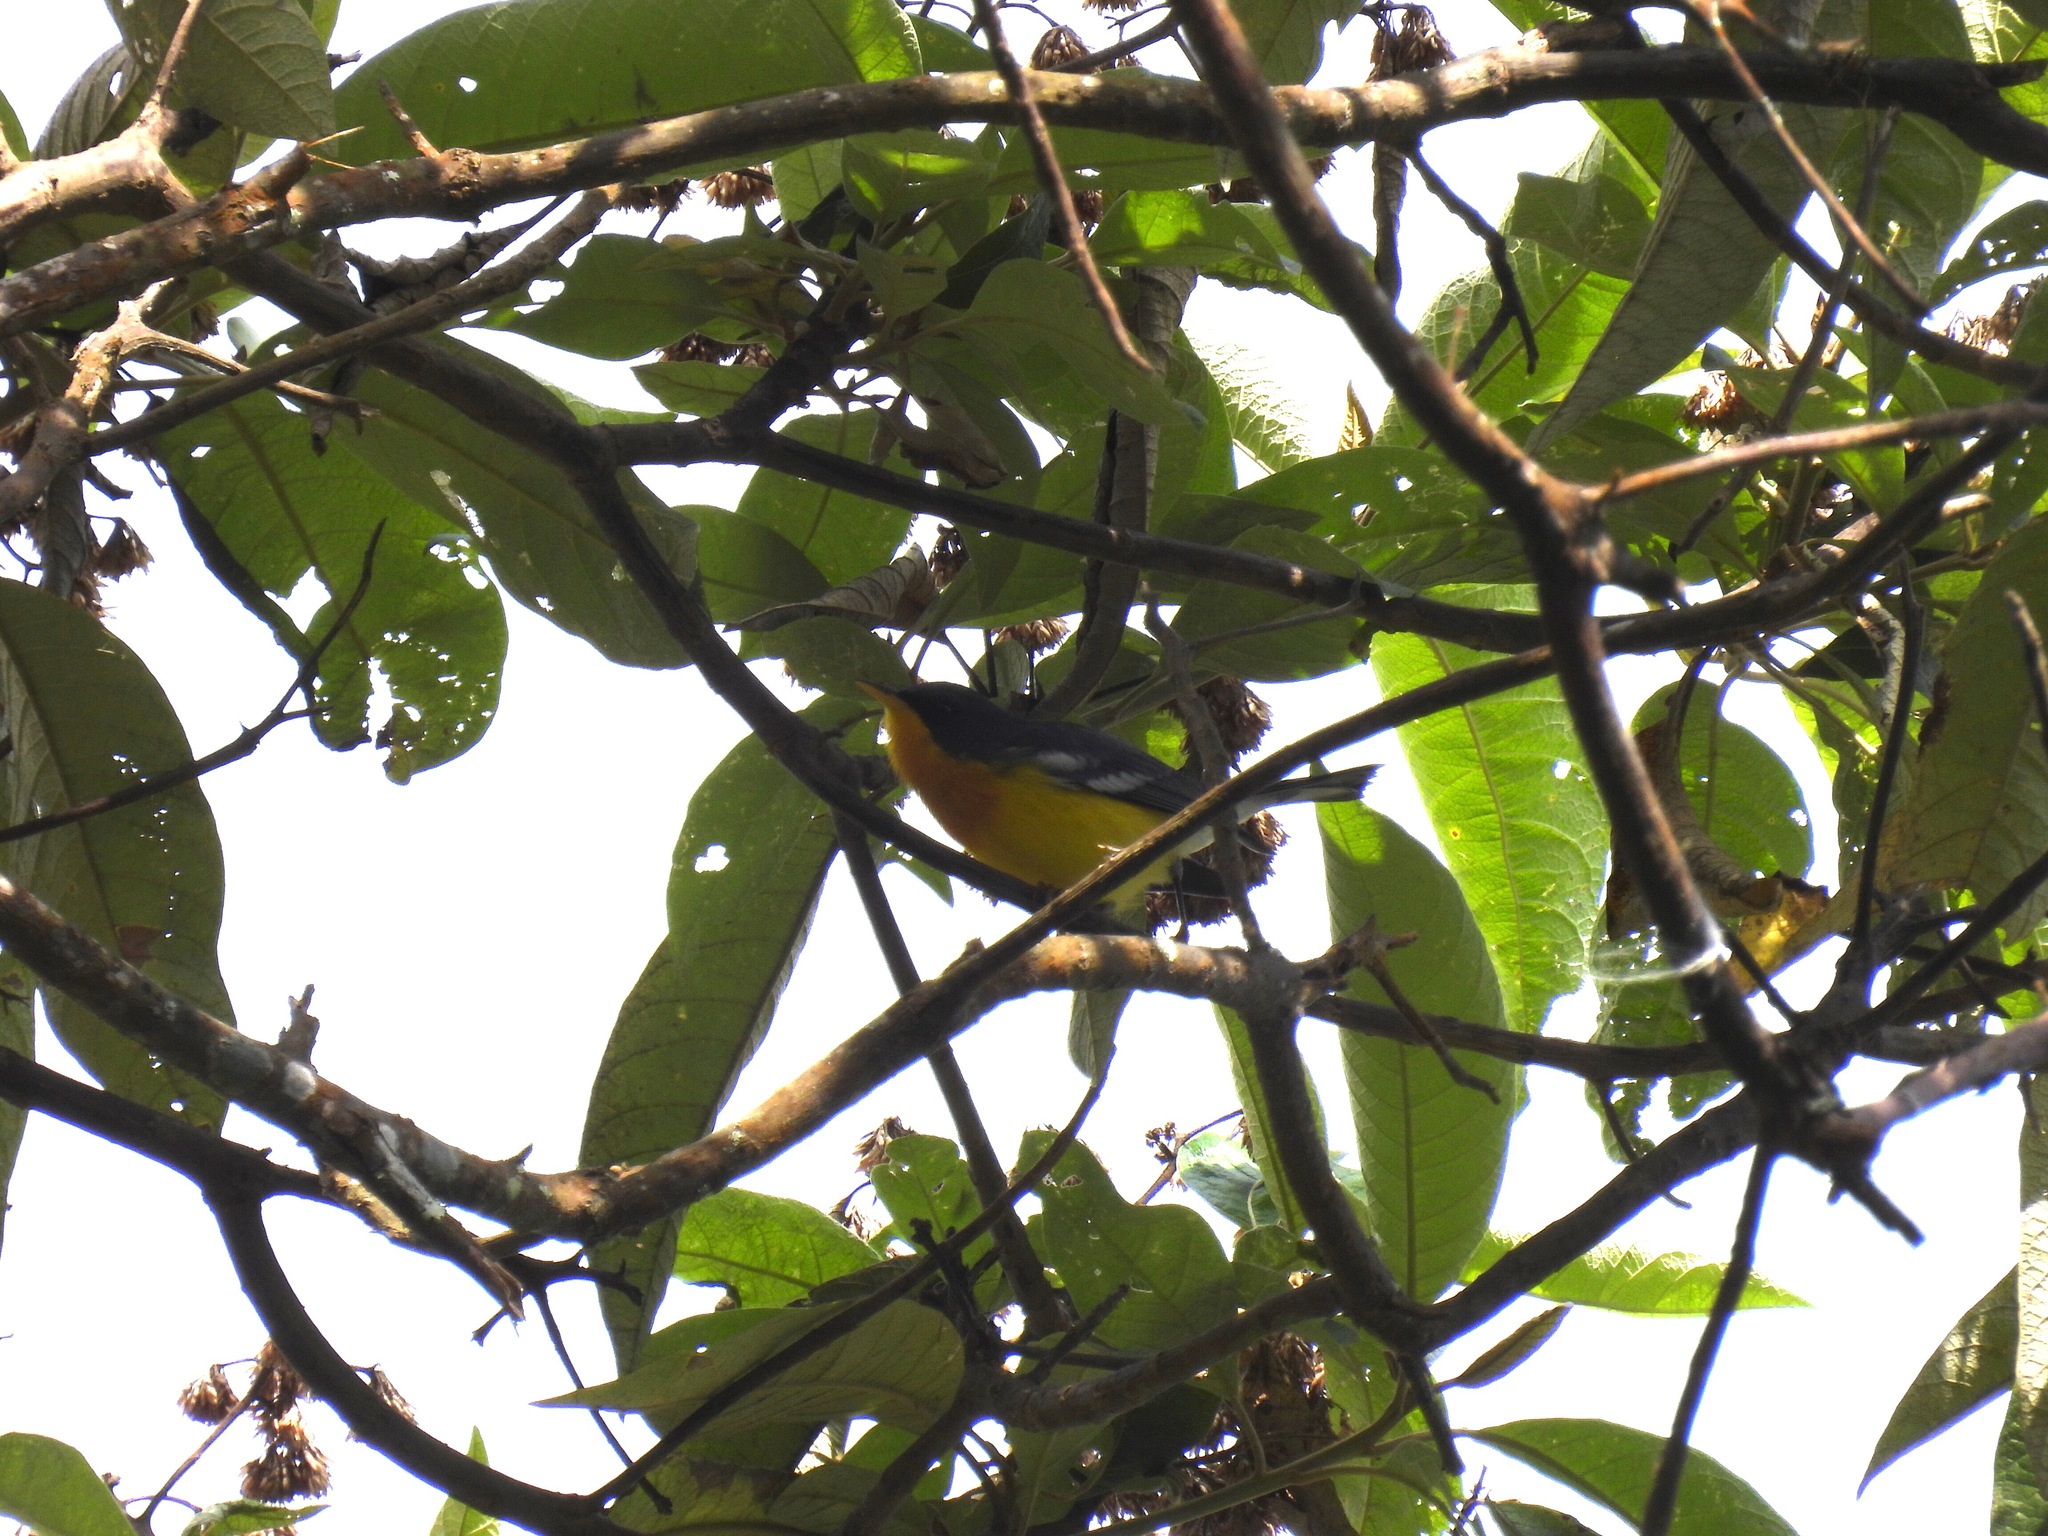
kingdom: Animalia
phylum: Chordata
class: Aves
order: Passeriformes
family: Parulidae
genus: Setophaga
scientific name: Setophaga pitiayumi
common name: Tropical parula
